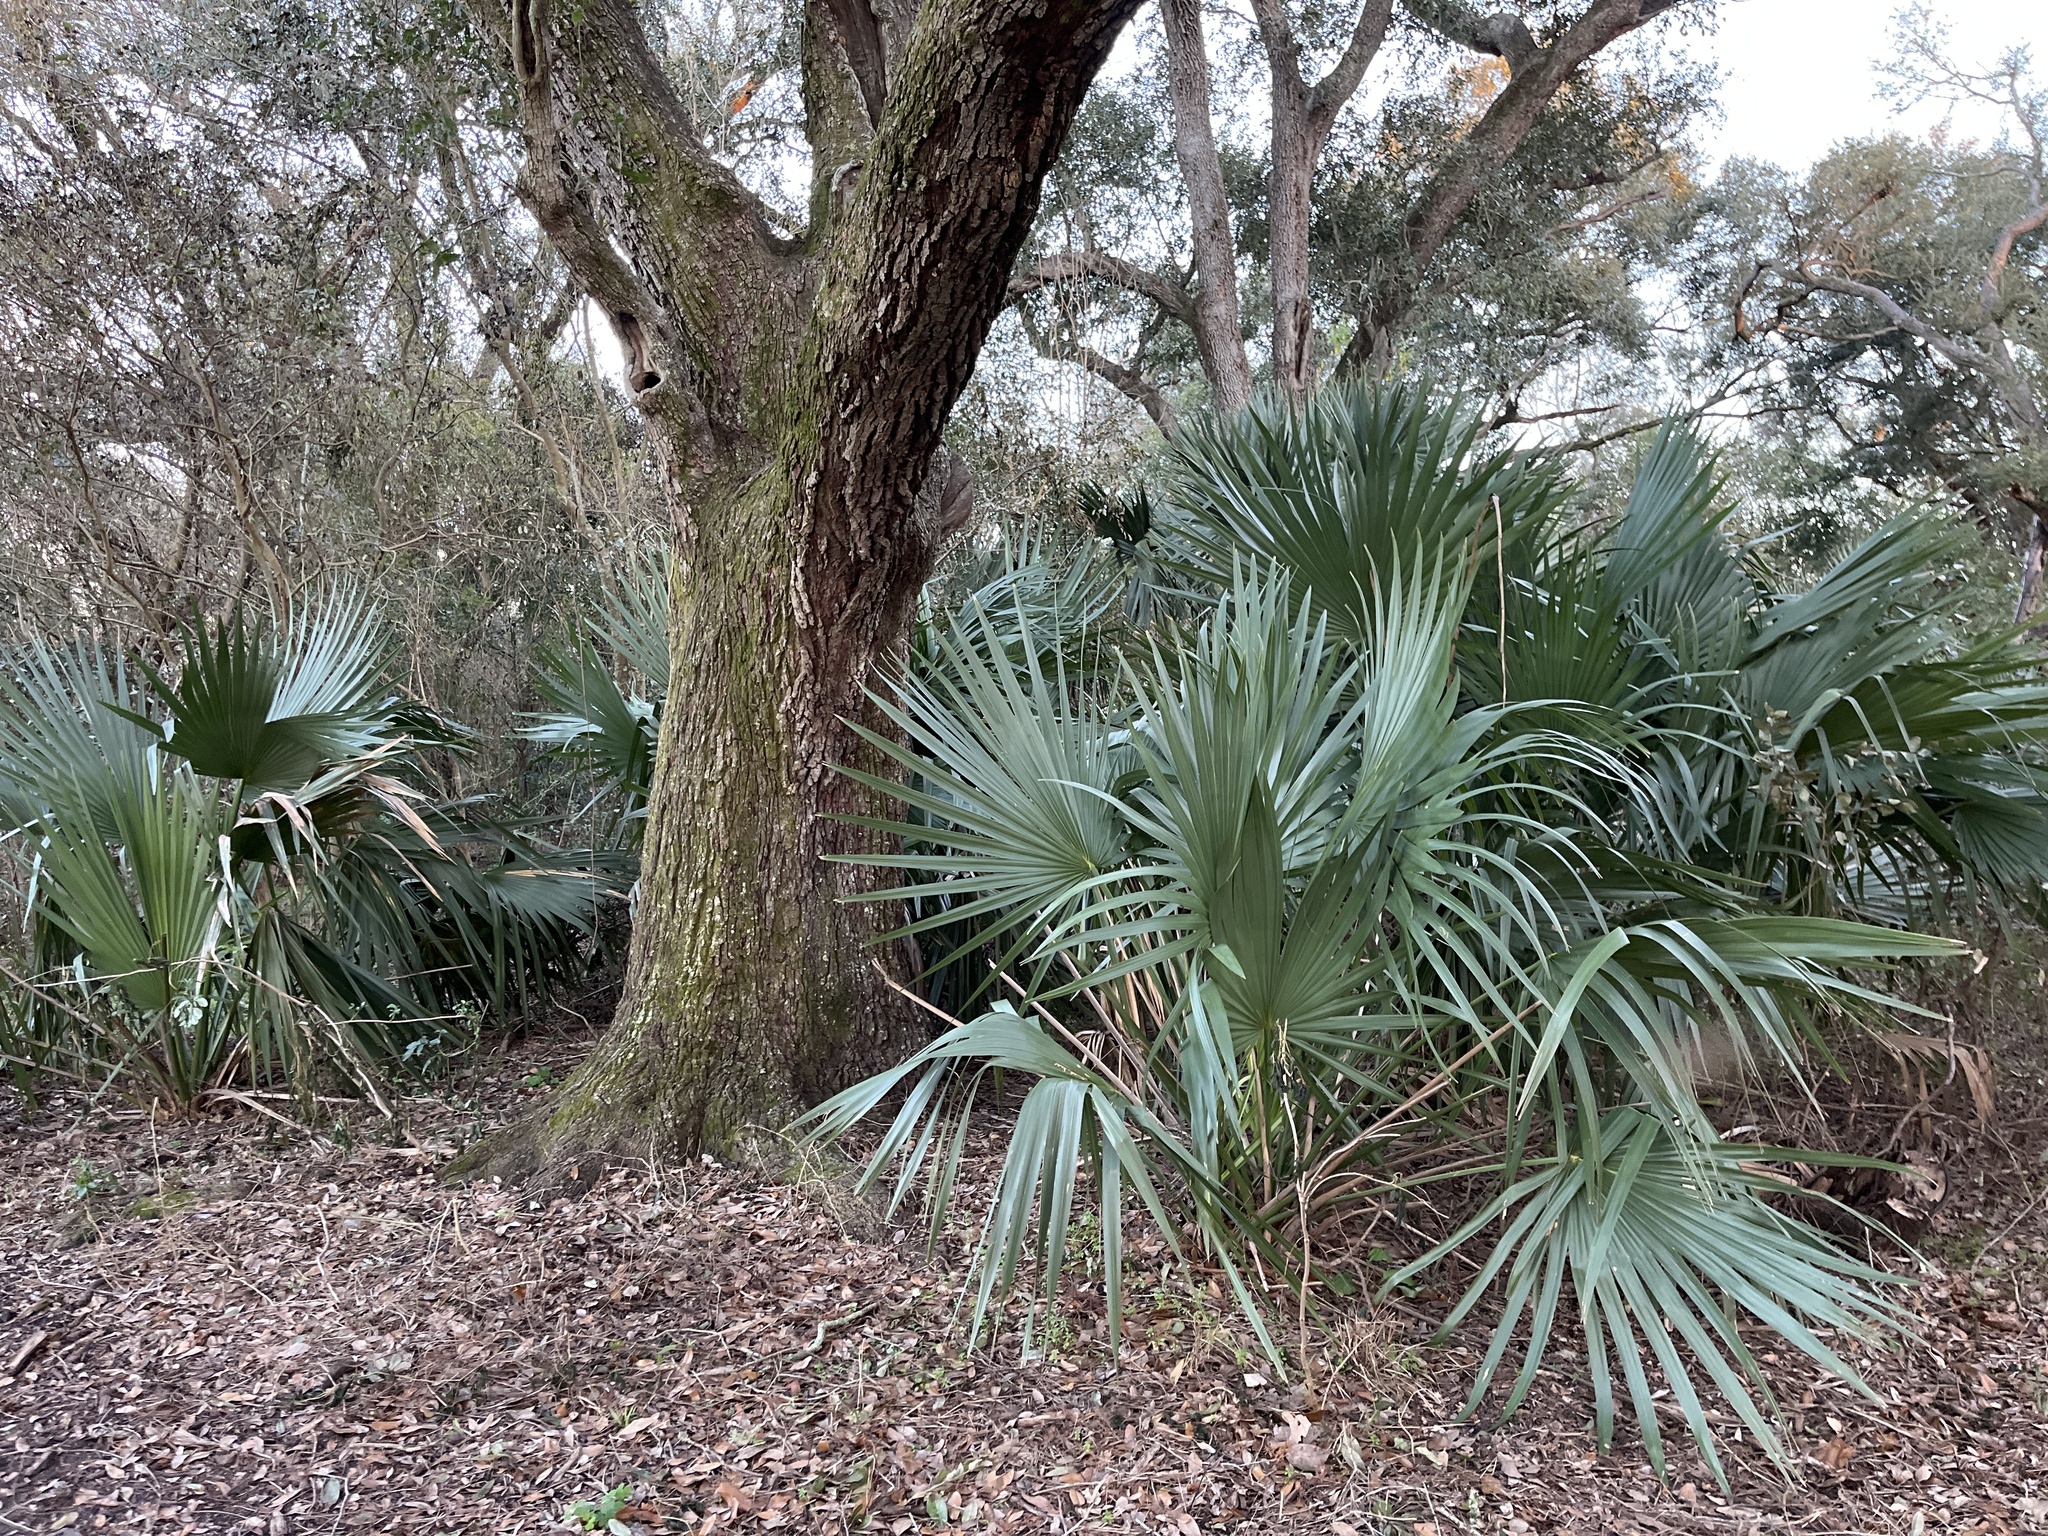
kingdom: Plantae
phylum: Tracheophyta
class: Liliopsida
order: Arecales
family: Arecaceae
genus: Sabal
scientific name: Sabal minor
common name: Dwarf palmetto
